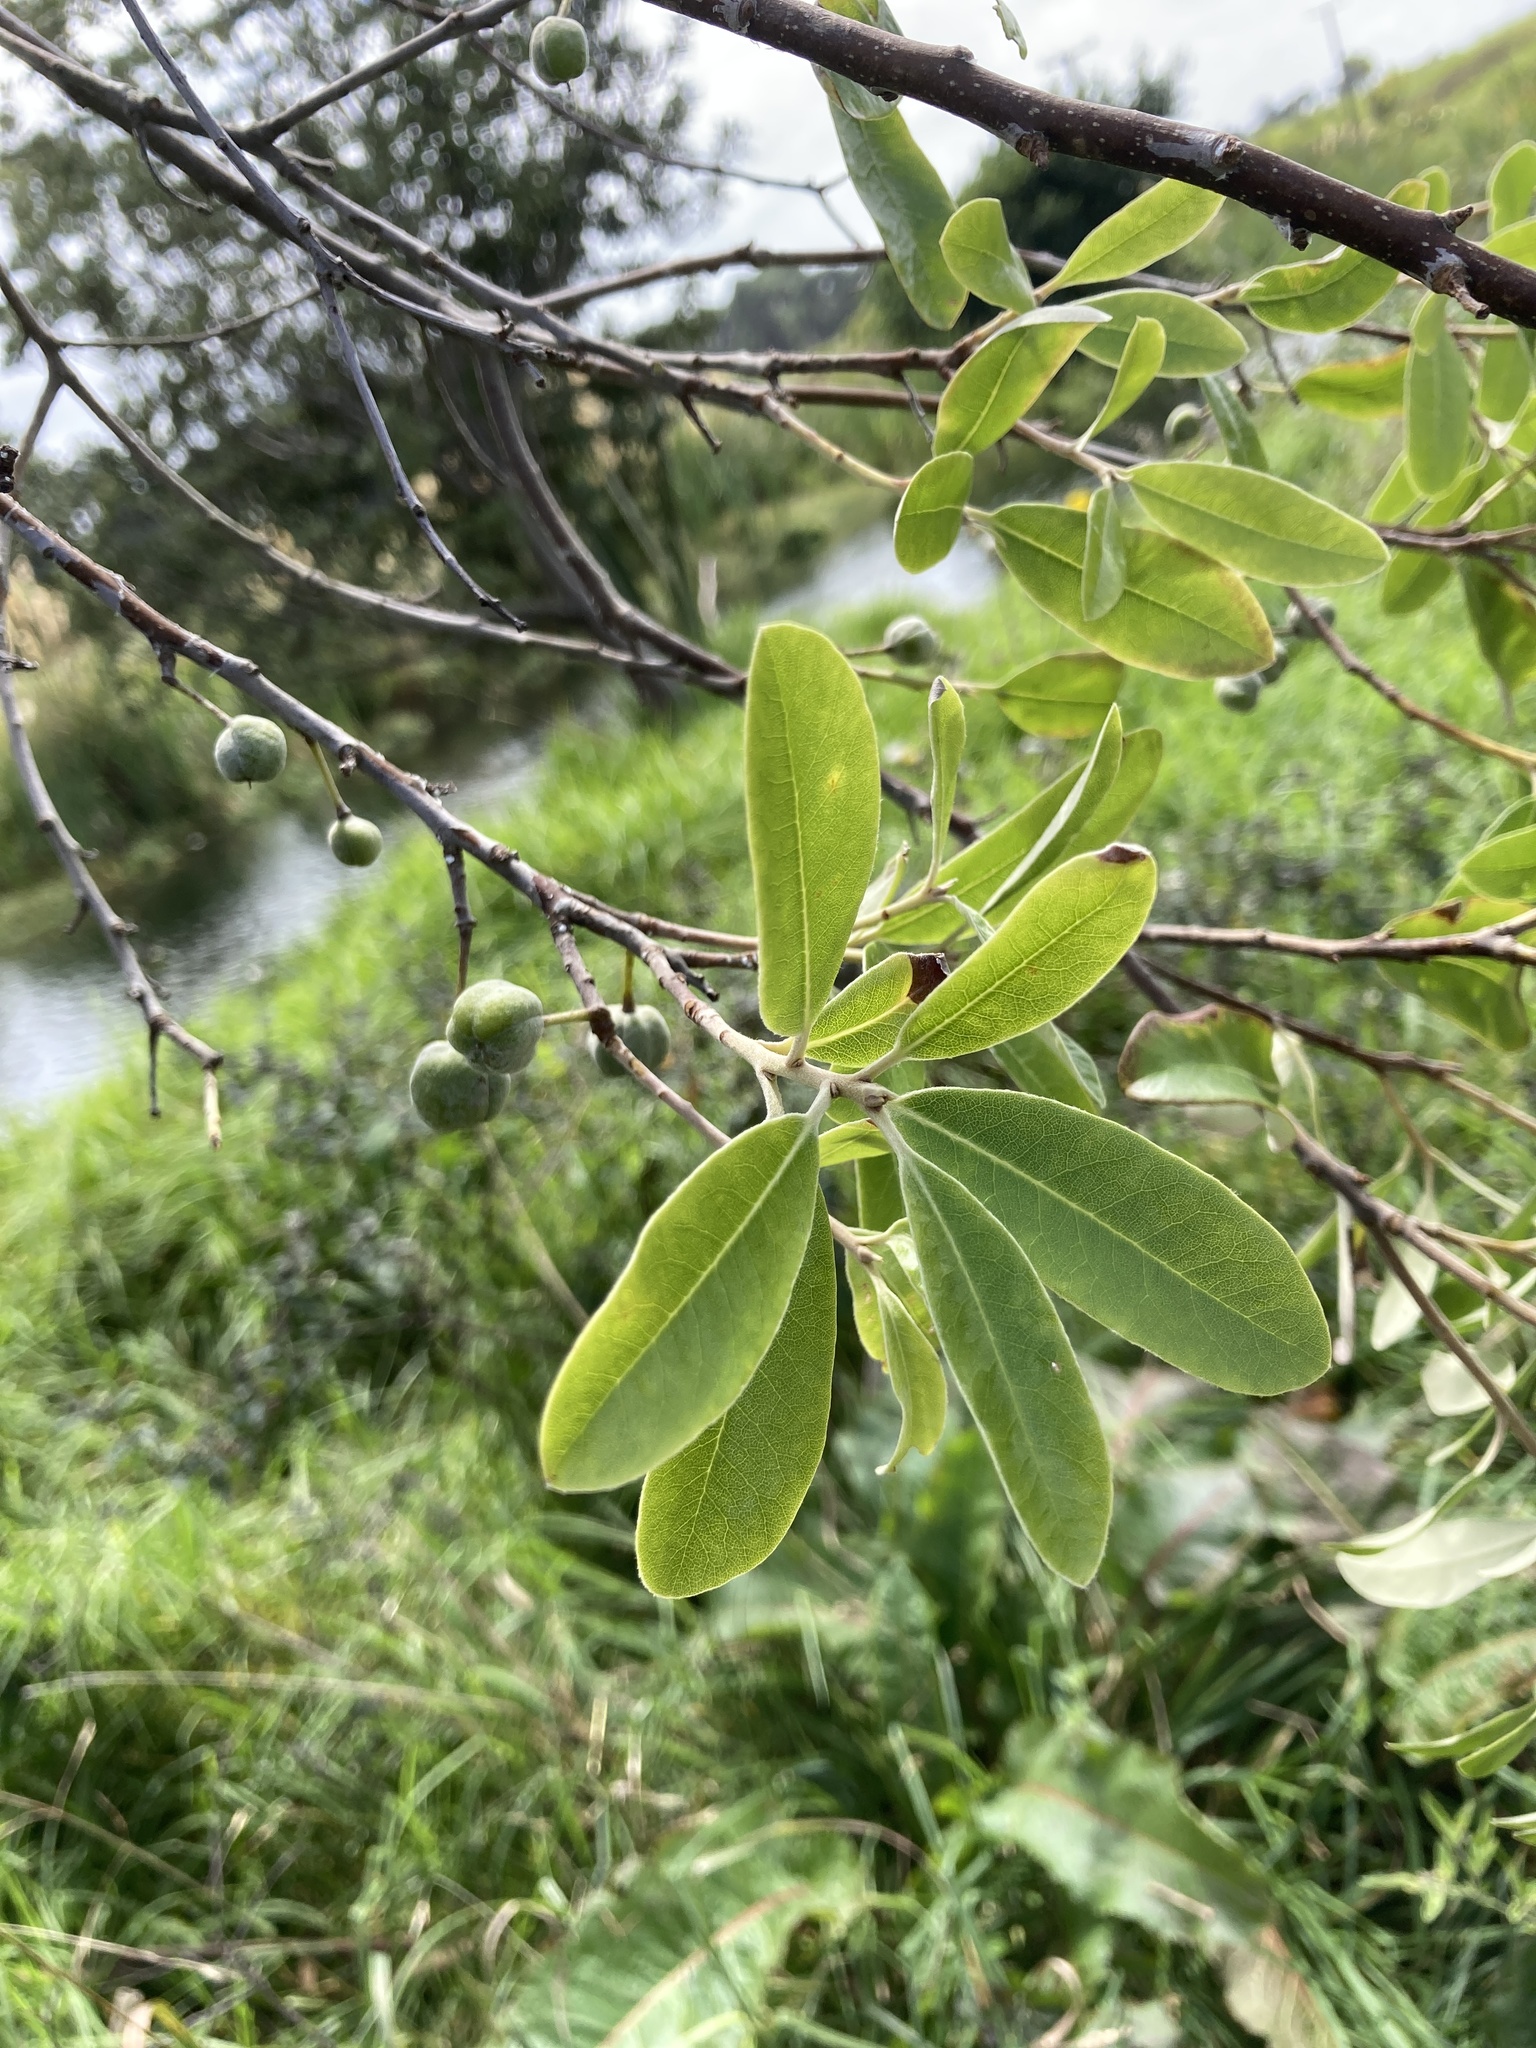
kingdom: Plantae
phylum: Tracheophyta
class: Magnoliopsida
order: Apiales
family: Pittosporaceae
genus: Pittosporum
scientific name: Pittosporum ralphii
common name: Ralph's desertwillow
